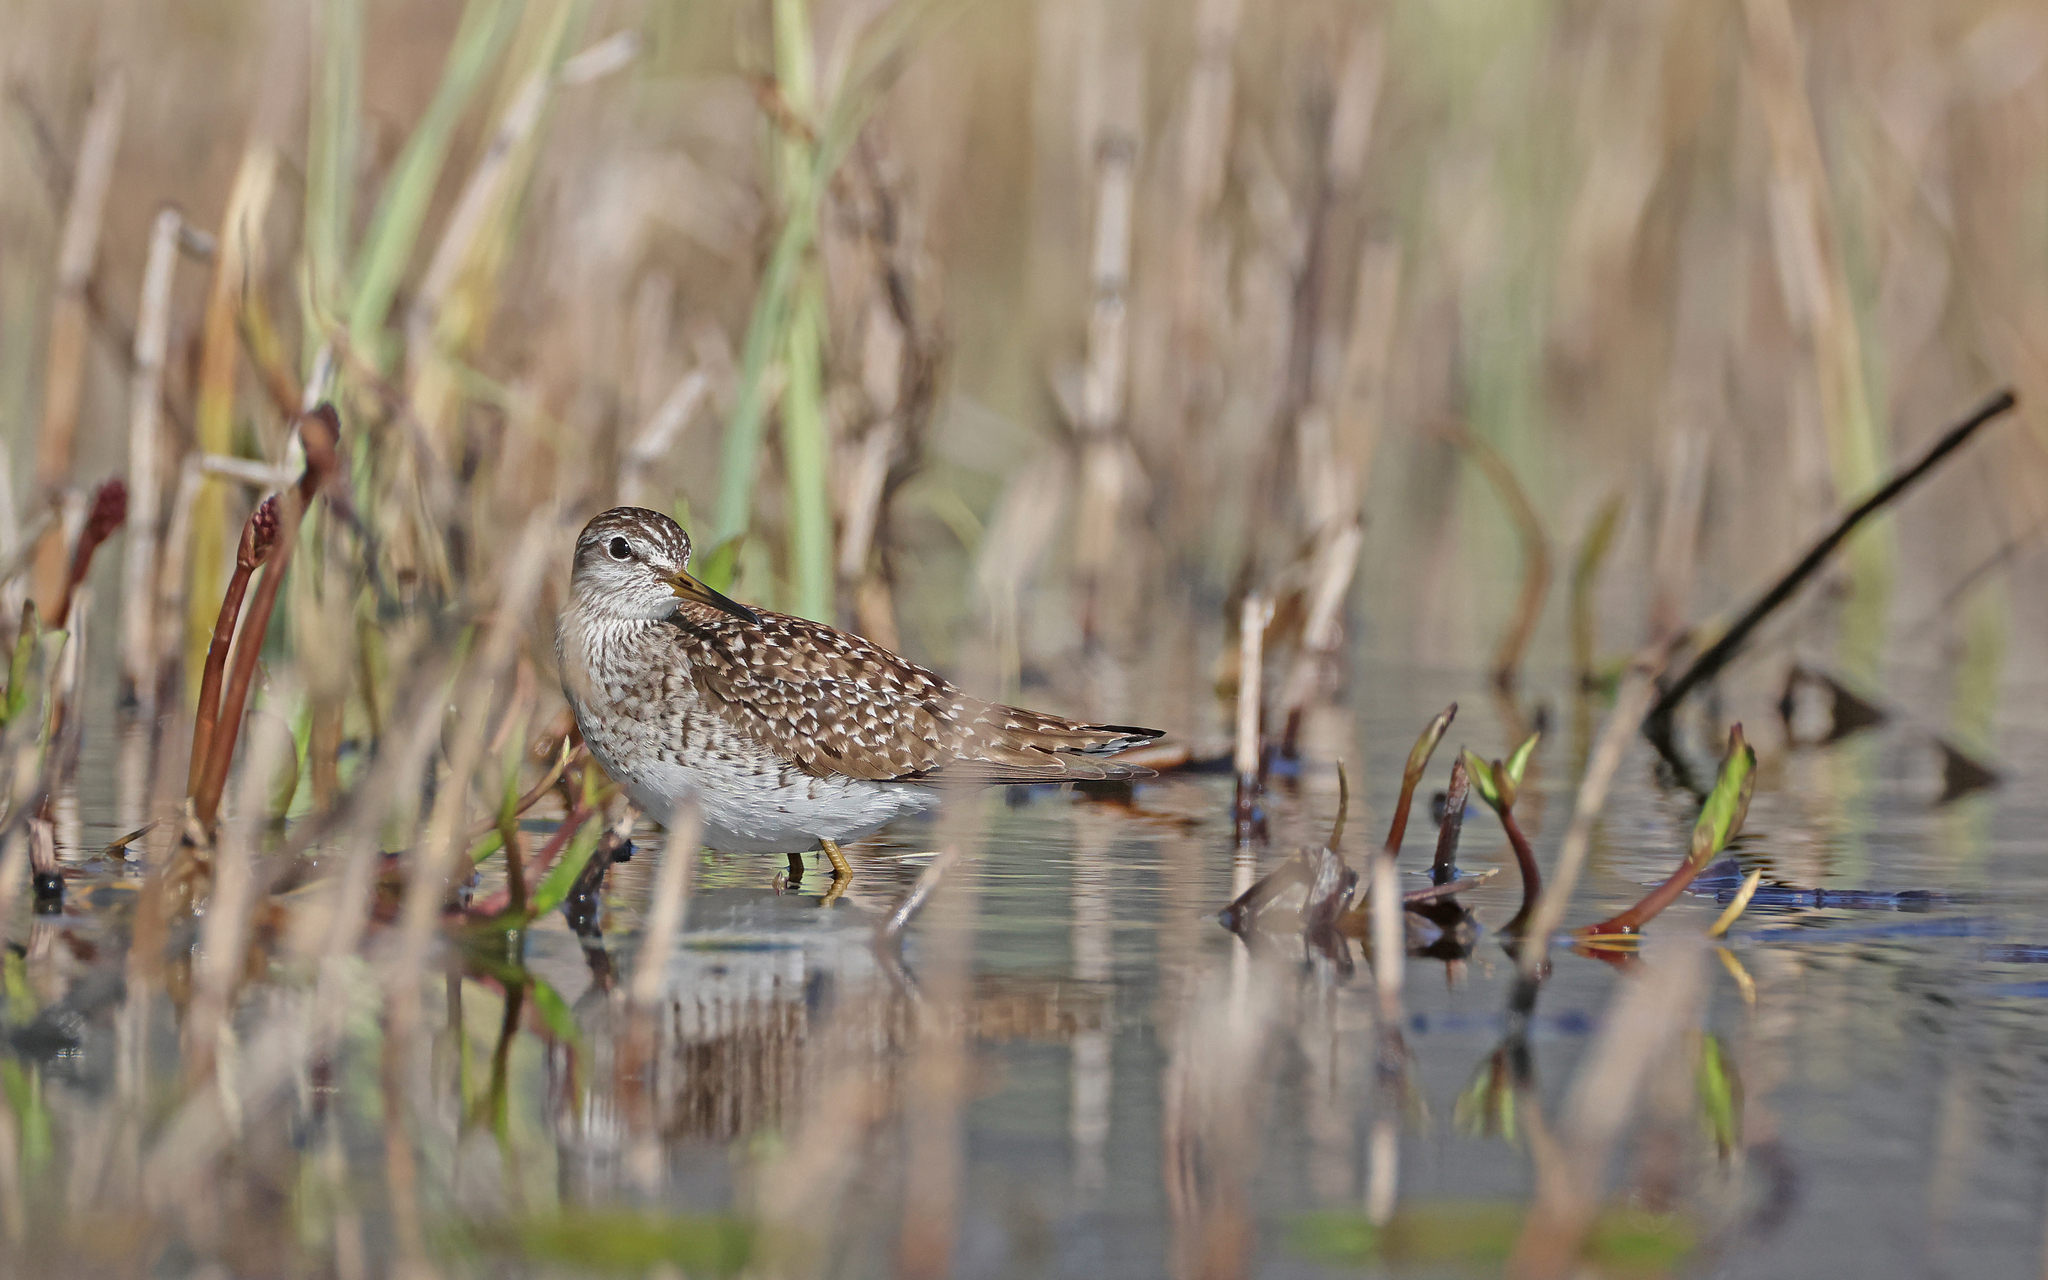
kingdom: Animalia
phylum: Chordata
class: Aves
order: Charadriiformes
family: Scolopacidae
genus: Tringa
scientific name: Tringa glareola
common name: Wood sandpiper
